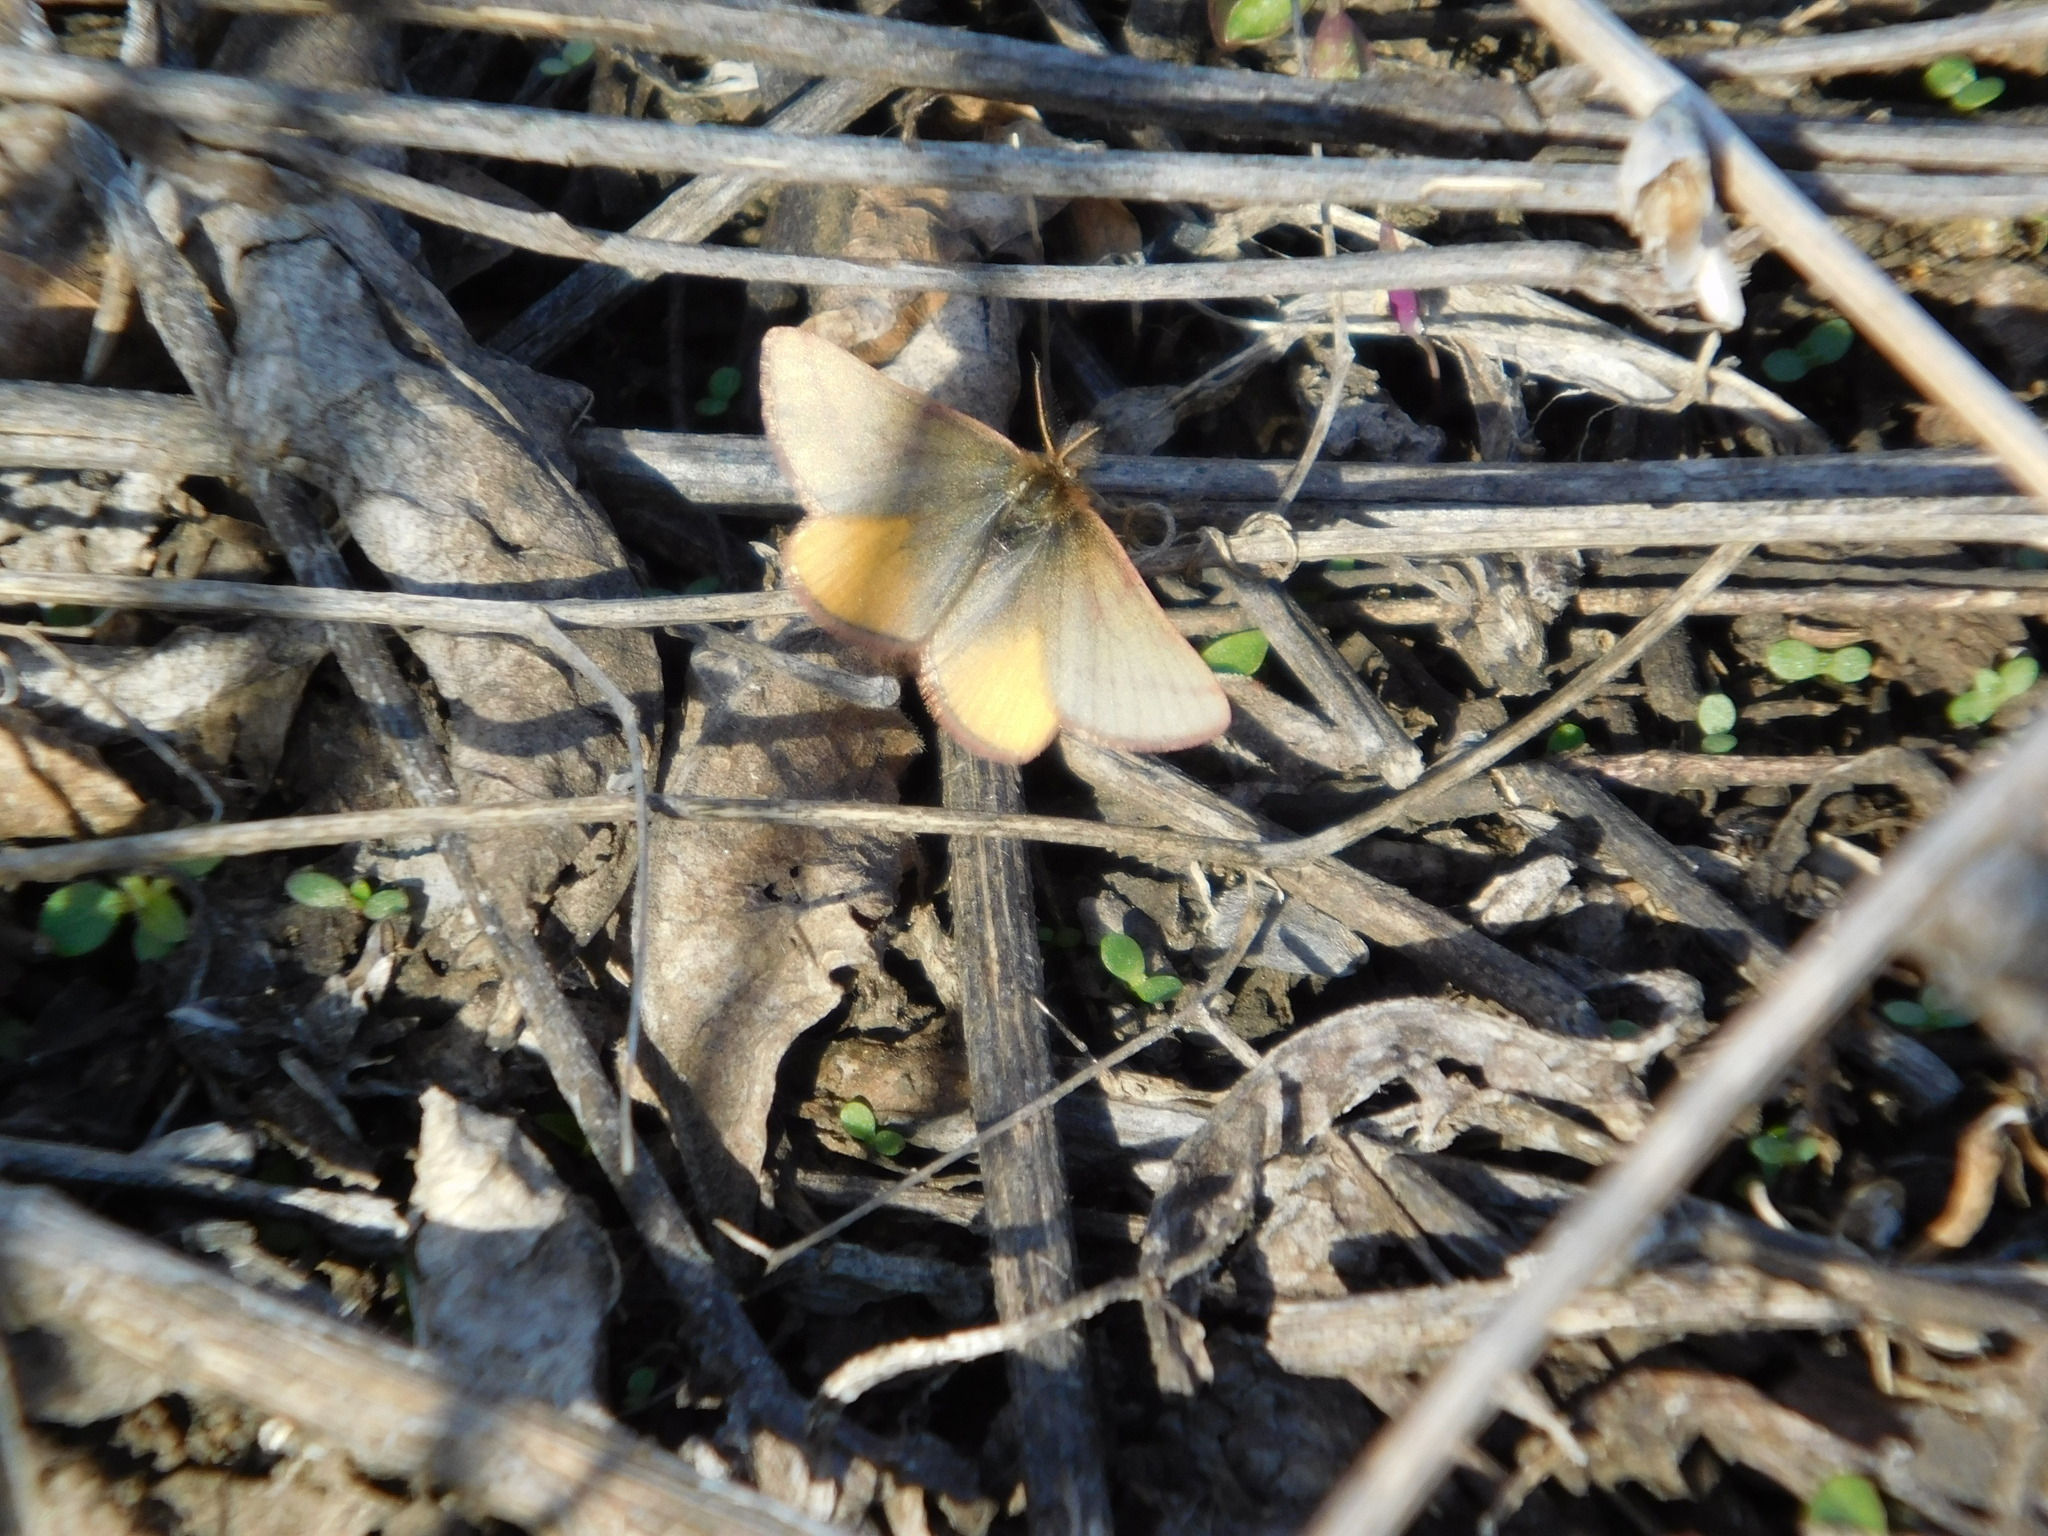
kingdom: Animalia
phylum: Arthropoda
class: Insecta
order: Lepidoptera
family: Geometridae
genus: Lythria
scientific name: Lythria purpuraria
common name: Purple-barred yellow
